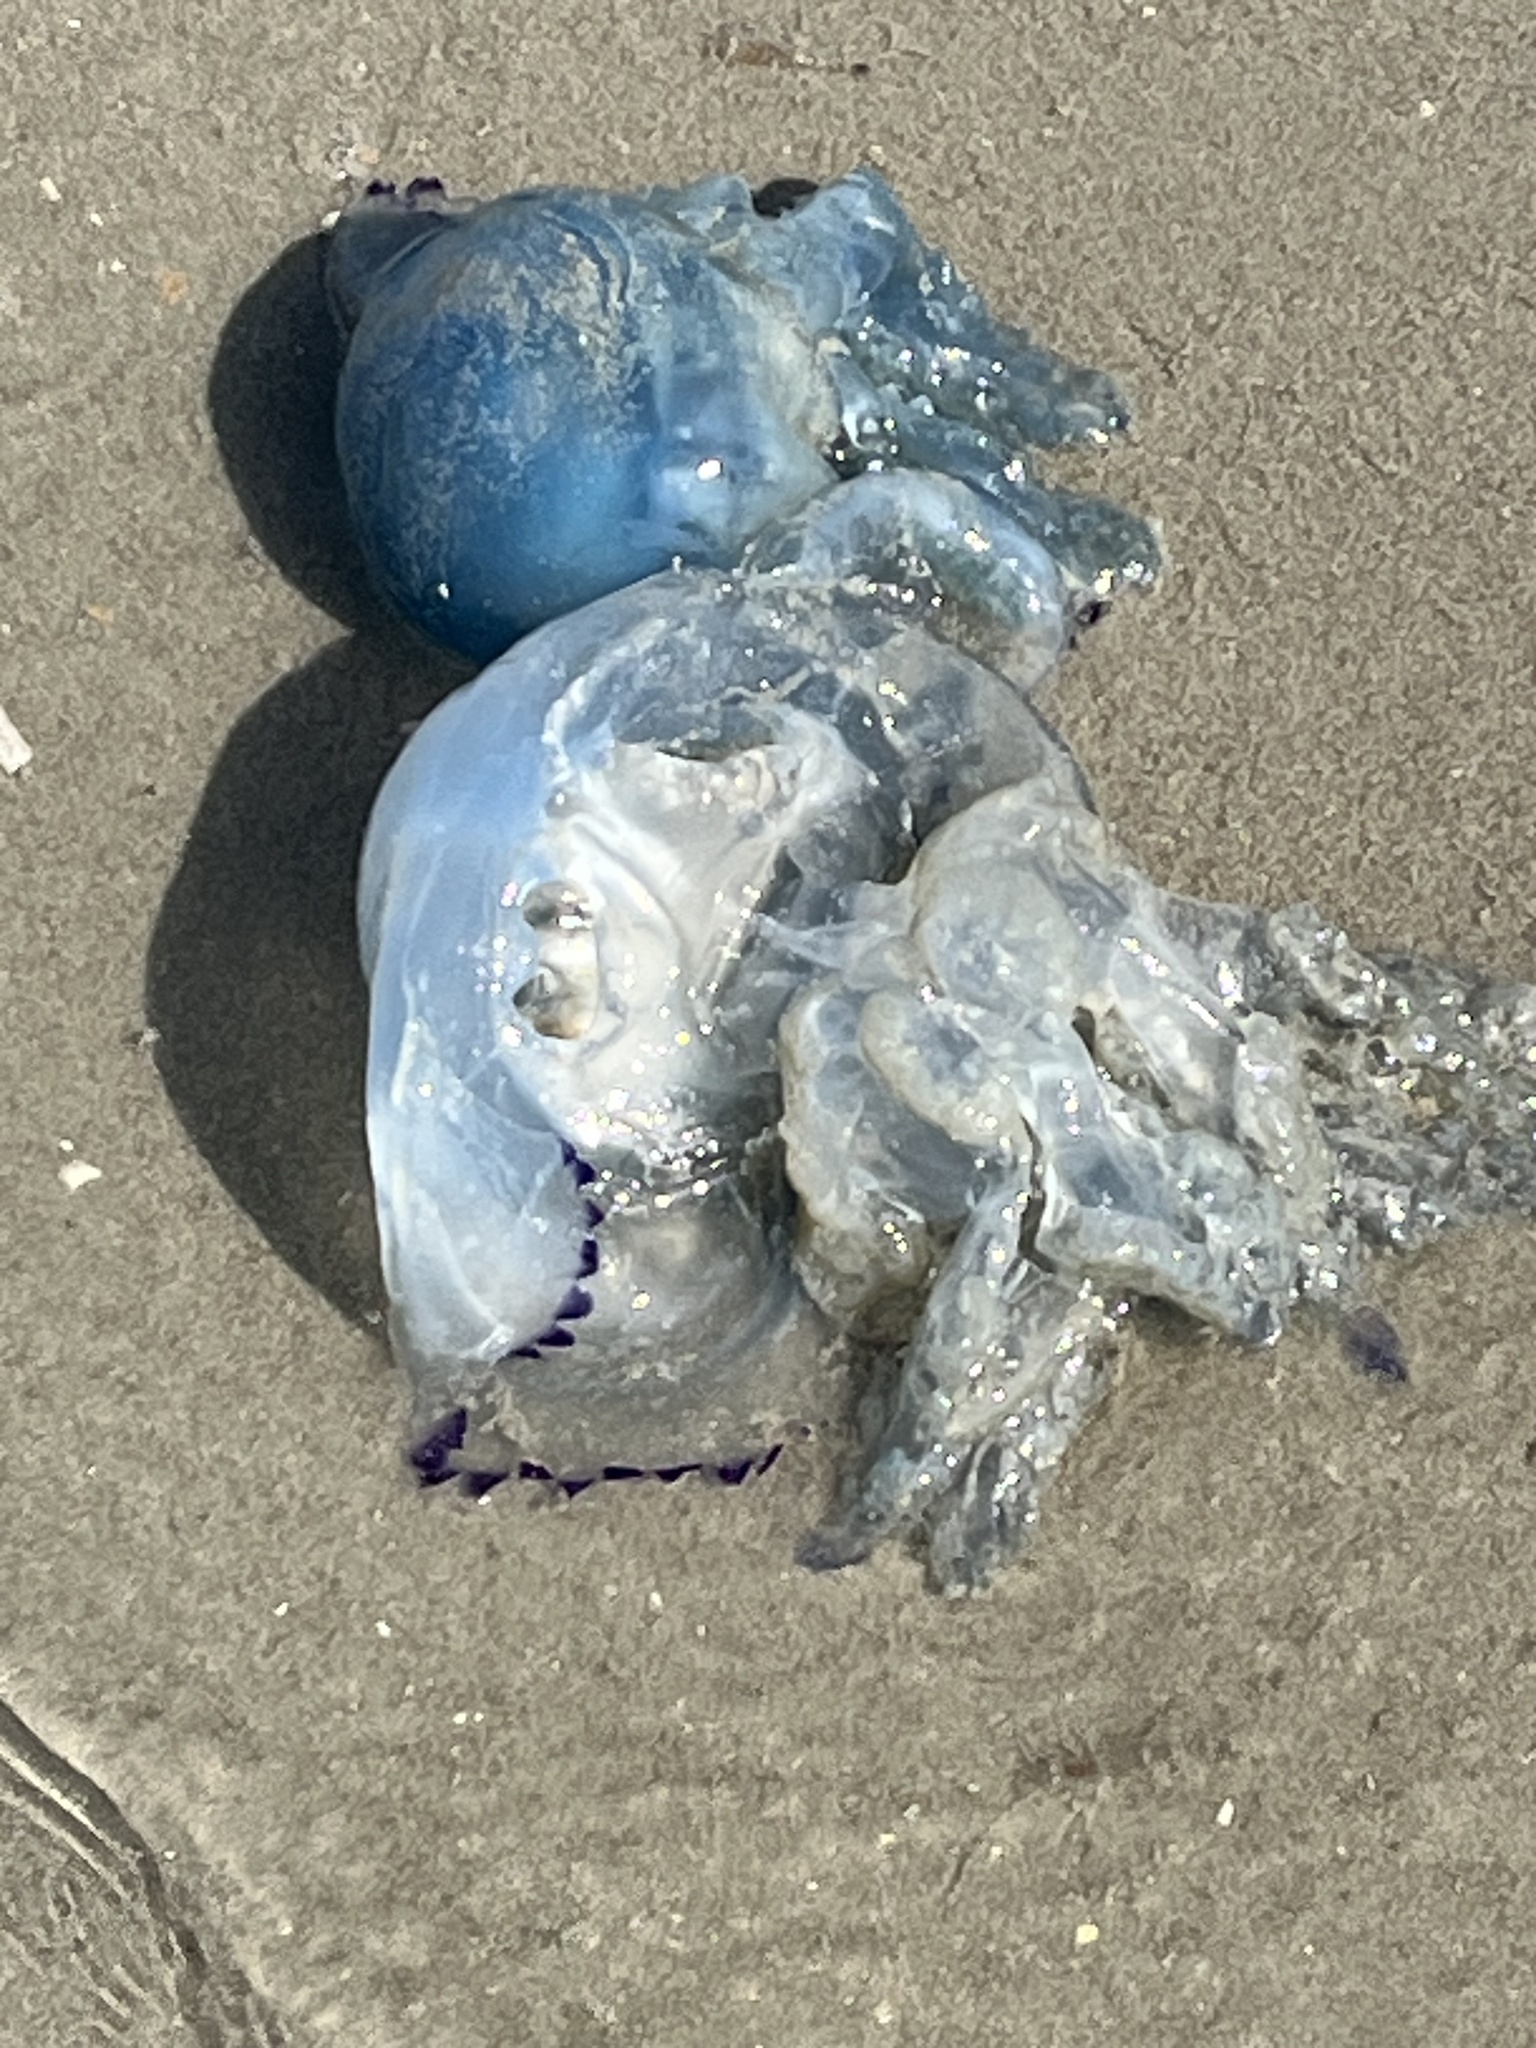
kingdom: Animalia
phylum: Cnidaria
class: Scyphozoa
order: Rhizostomeae
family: Rhizostomatidae
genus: Rhizostoma
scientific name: Rhizostoma octopus
